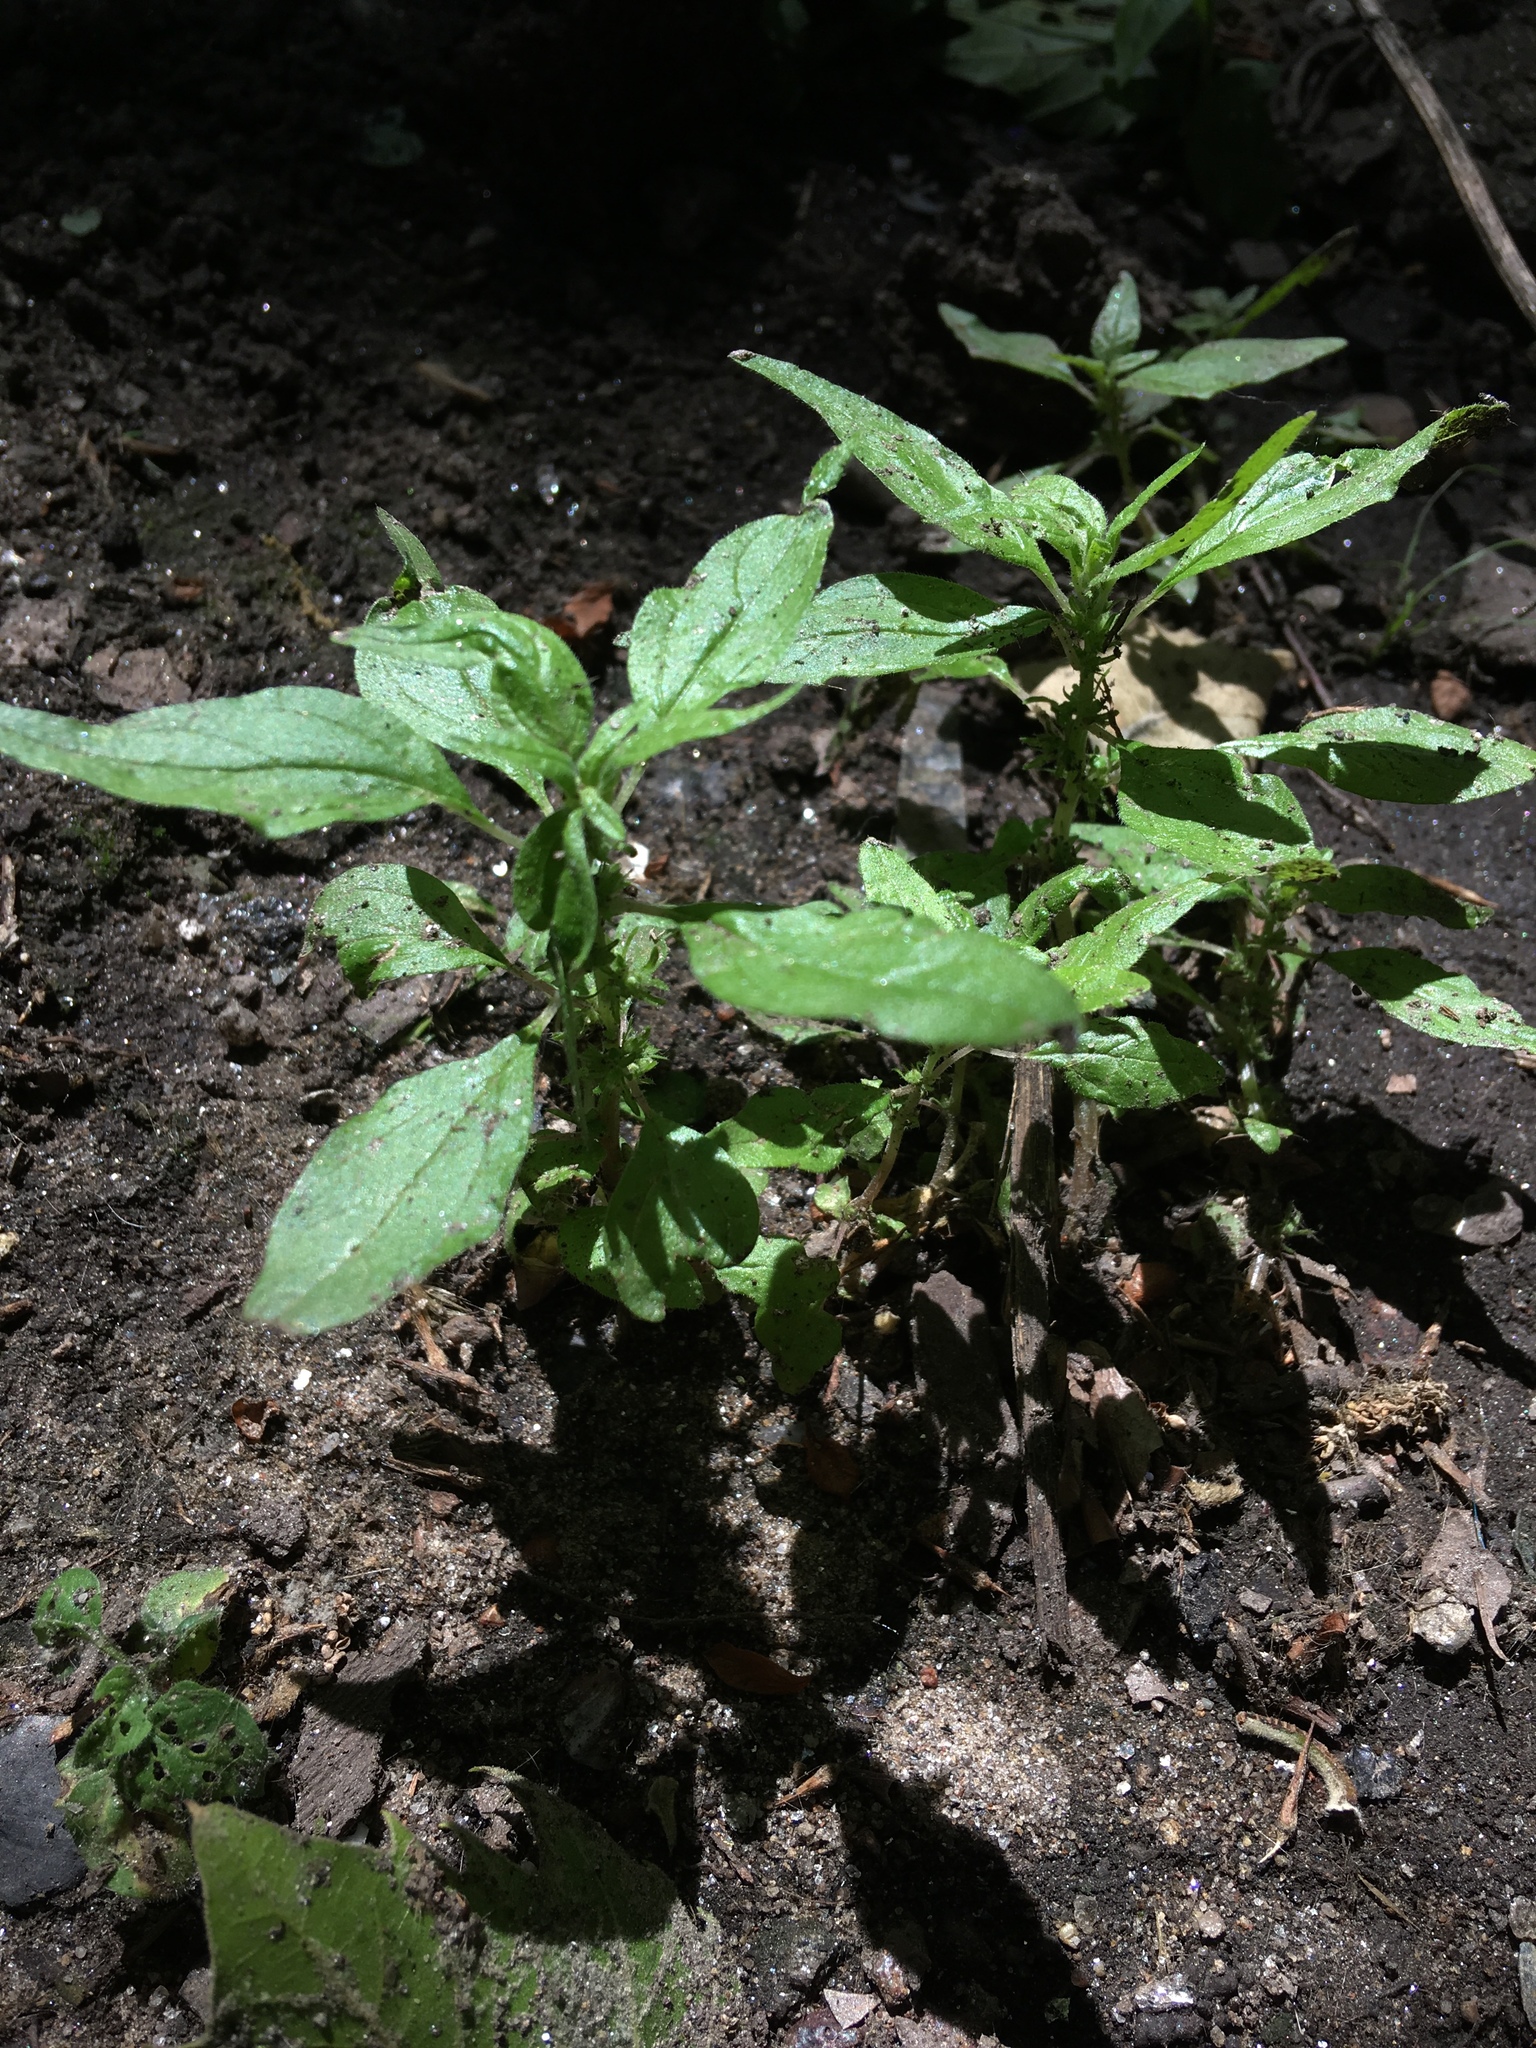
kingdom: Plantae
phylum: Tracheophyta
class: Magnoliopsida
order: Rosales
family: Urticaceae
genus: Parietaria
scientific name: Parietaria pensylvanica
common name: Pennsylvania pellitory
